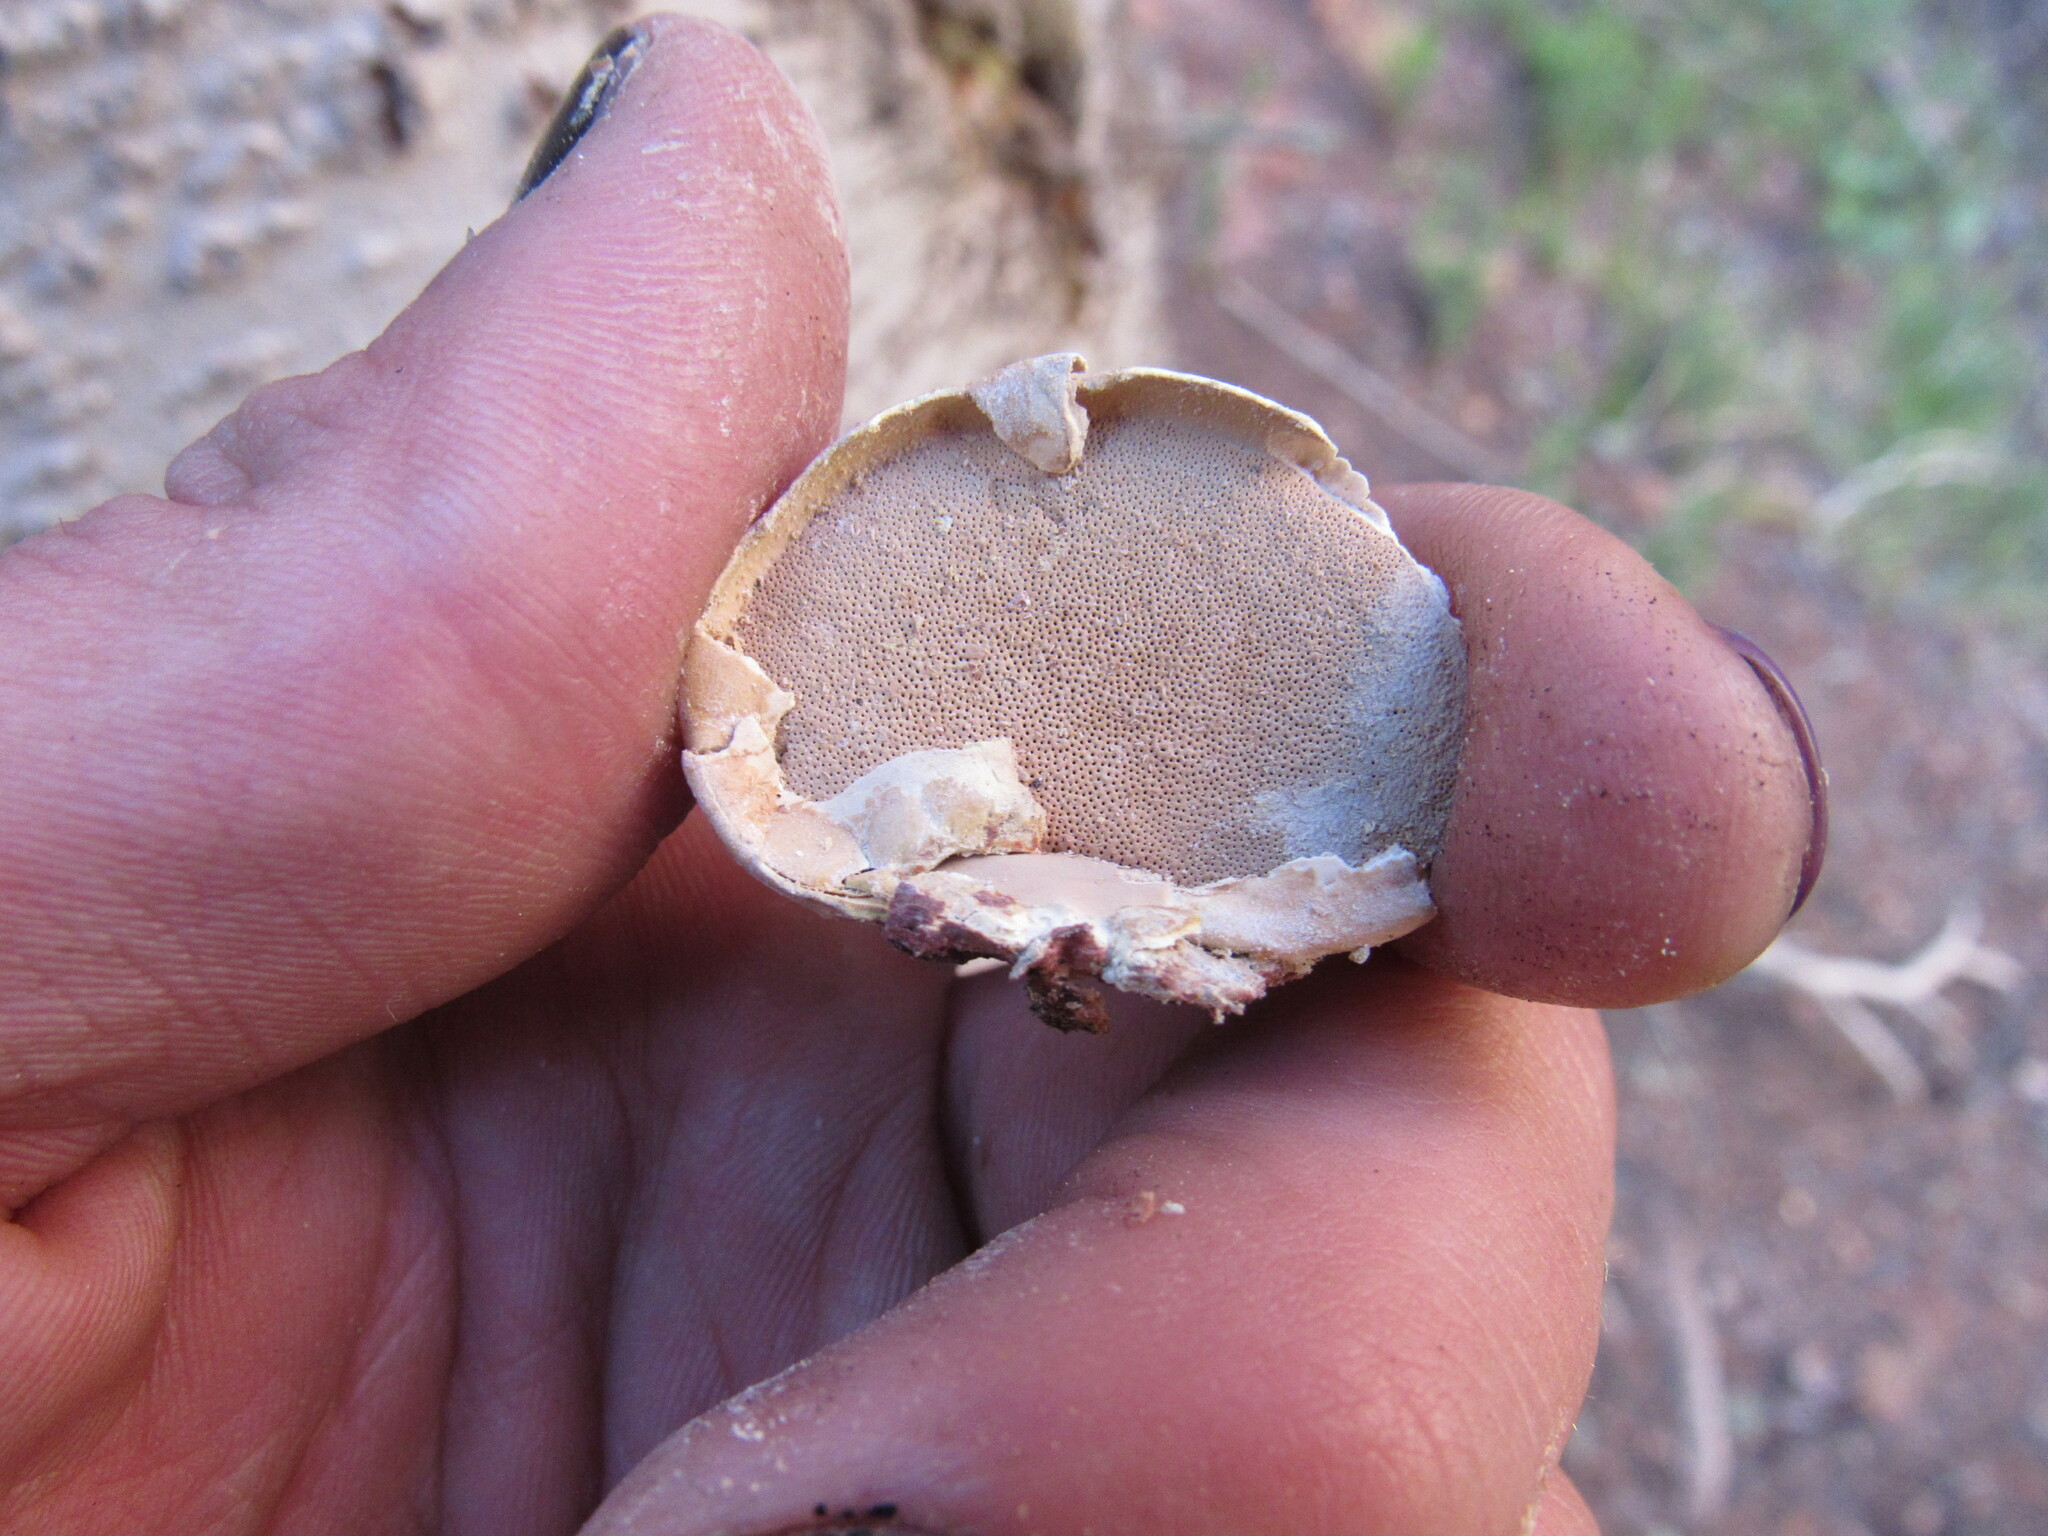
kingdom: Fungi
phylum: Basidiomycota
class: Agaricomycetes
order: Polyporales
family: Polyporaceae
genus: Cryptoporus
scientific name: Cryptoporus volvatus
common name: Veiled polypore
